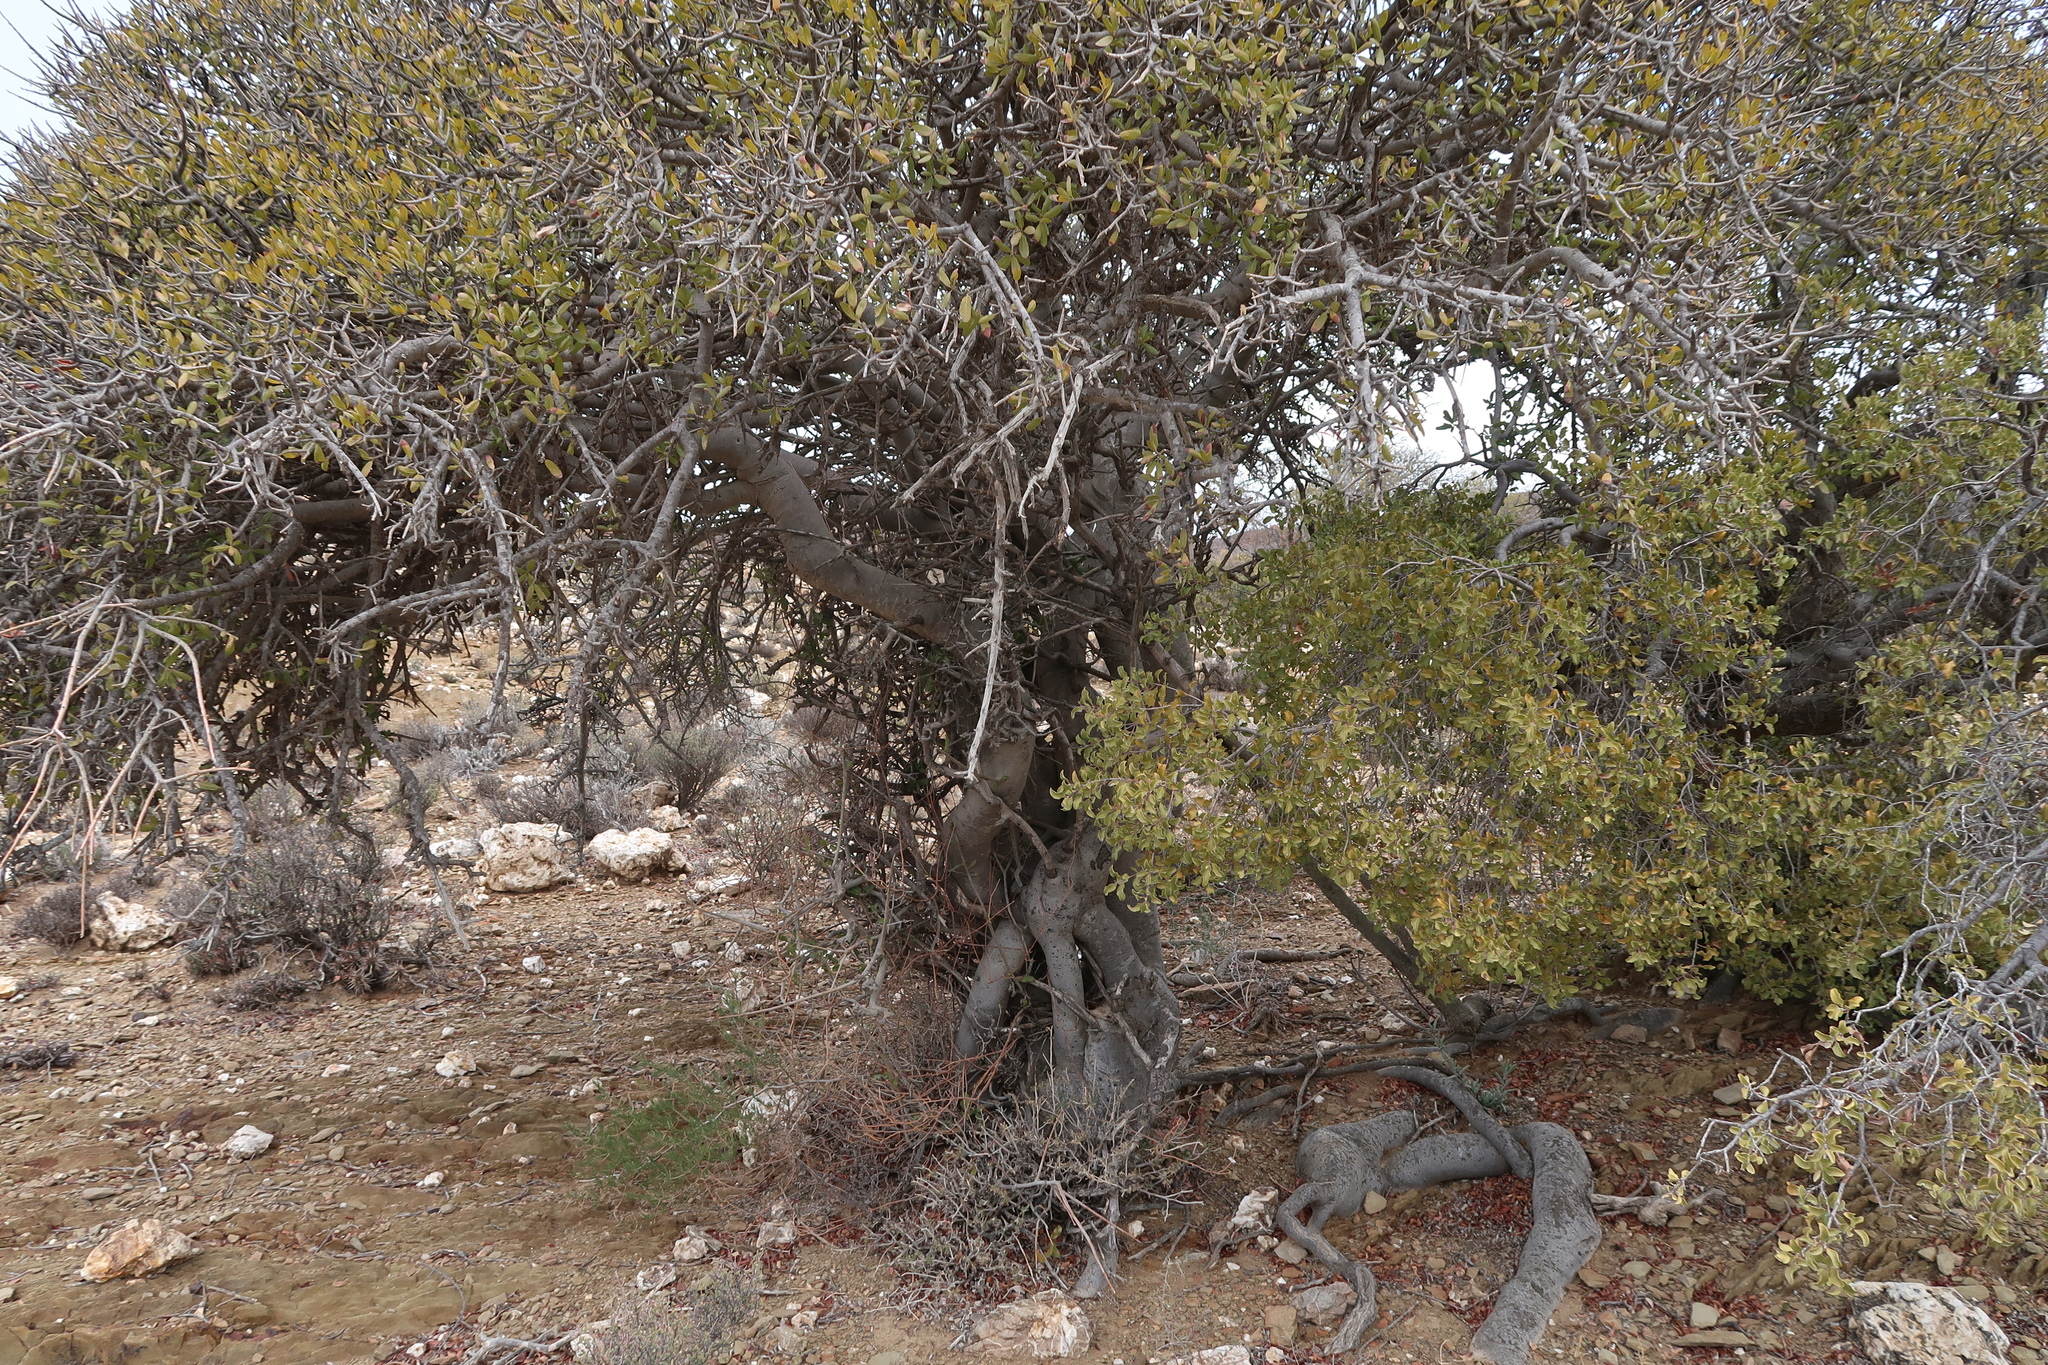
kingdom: Plantae
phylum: Tracheophyta
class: Magnoliopsida
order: Sapindales
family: Sapindaceae
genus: Pappea
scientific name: Pappea capensis
